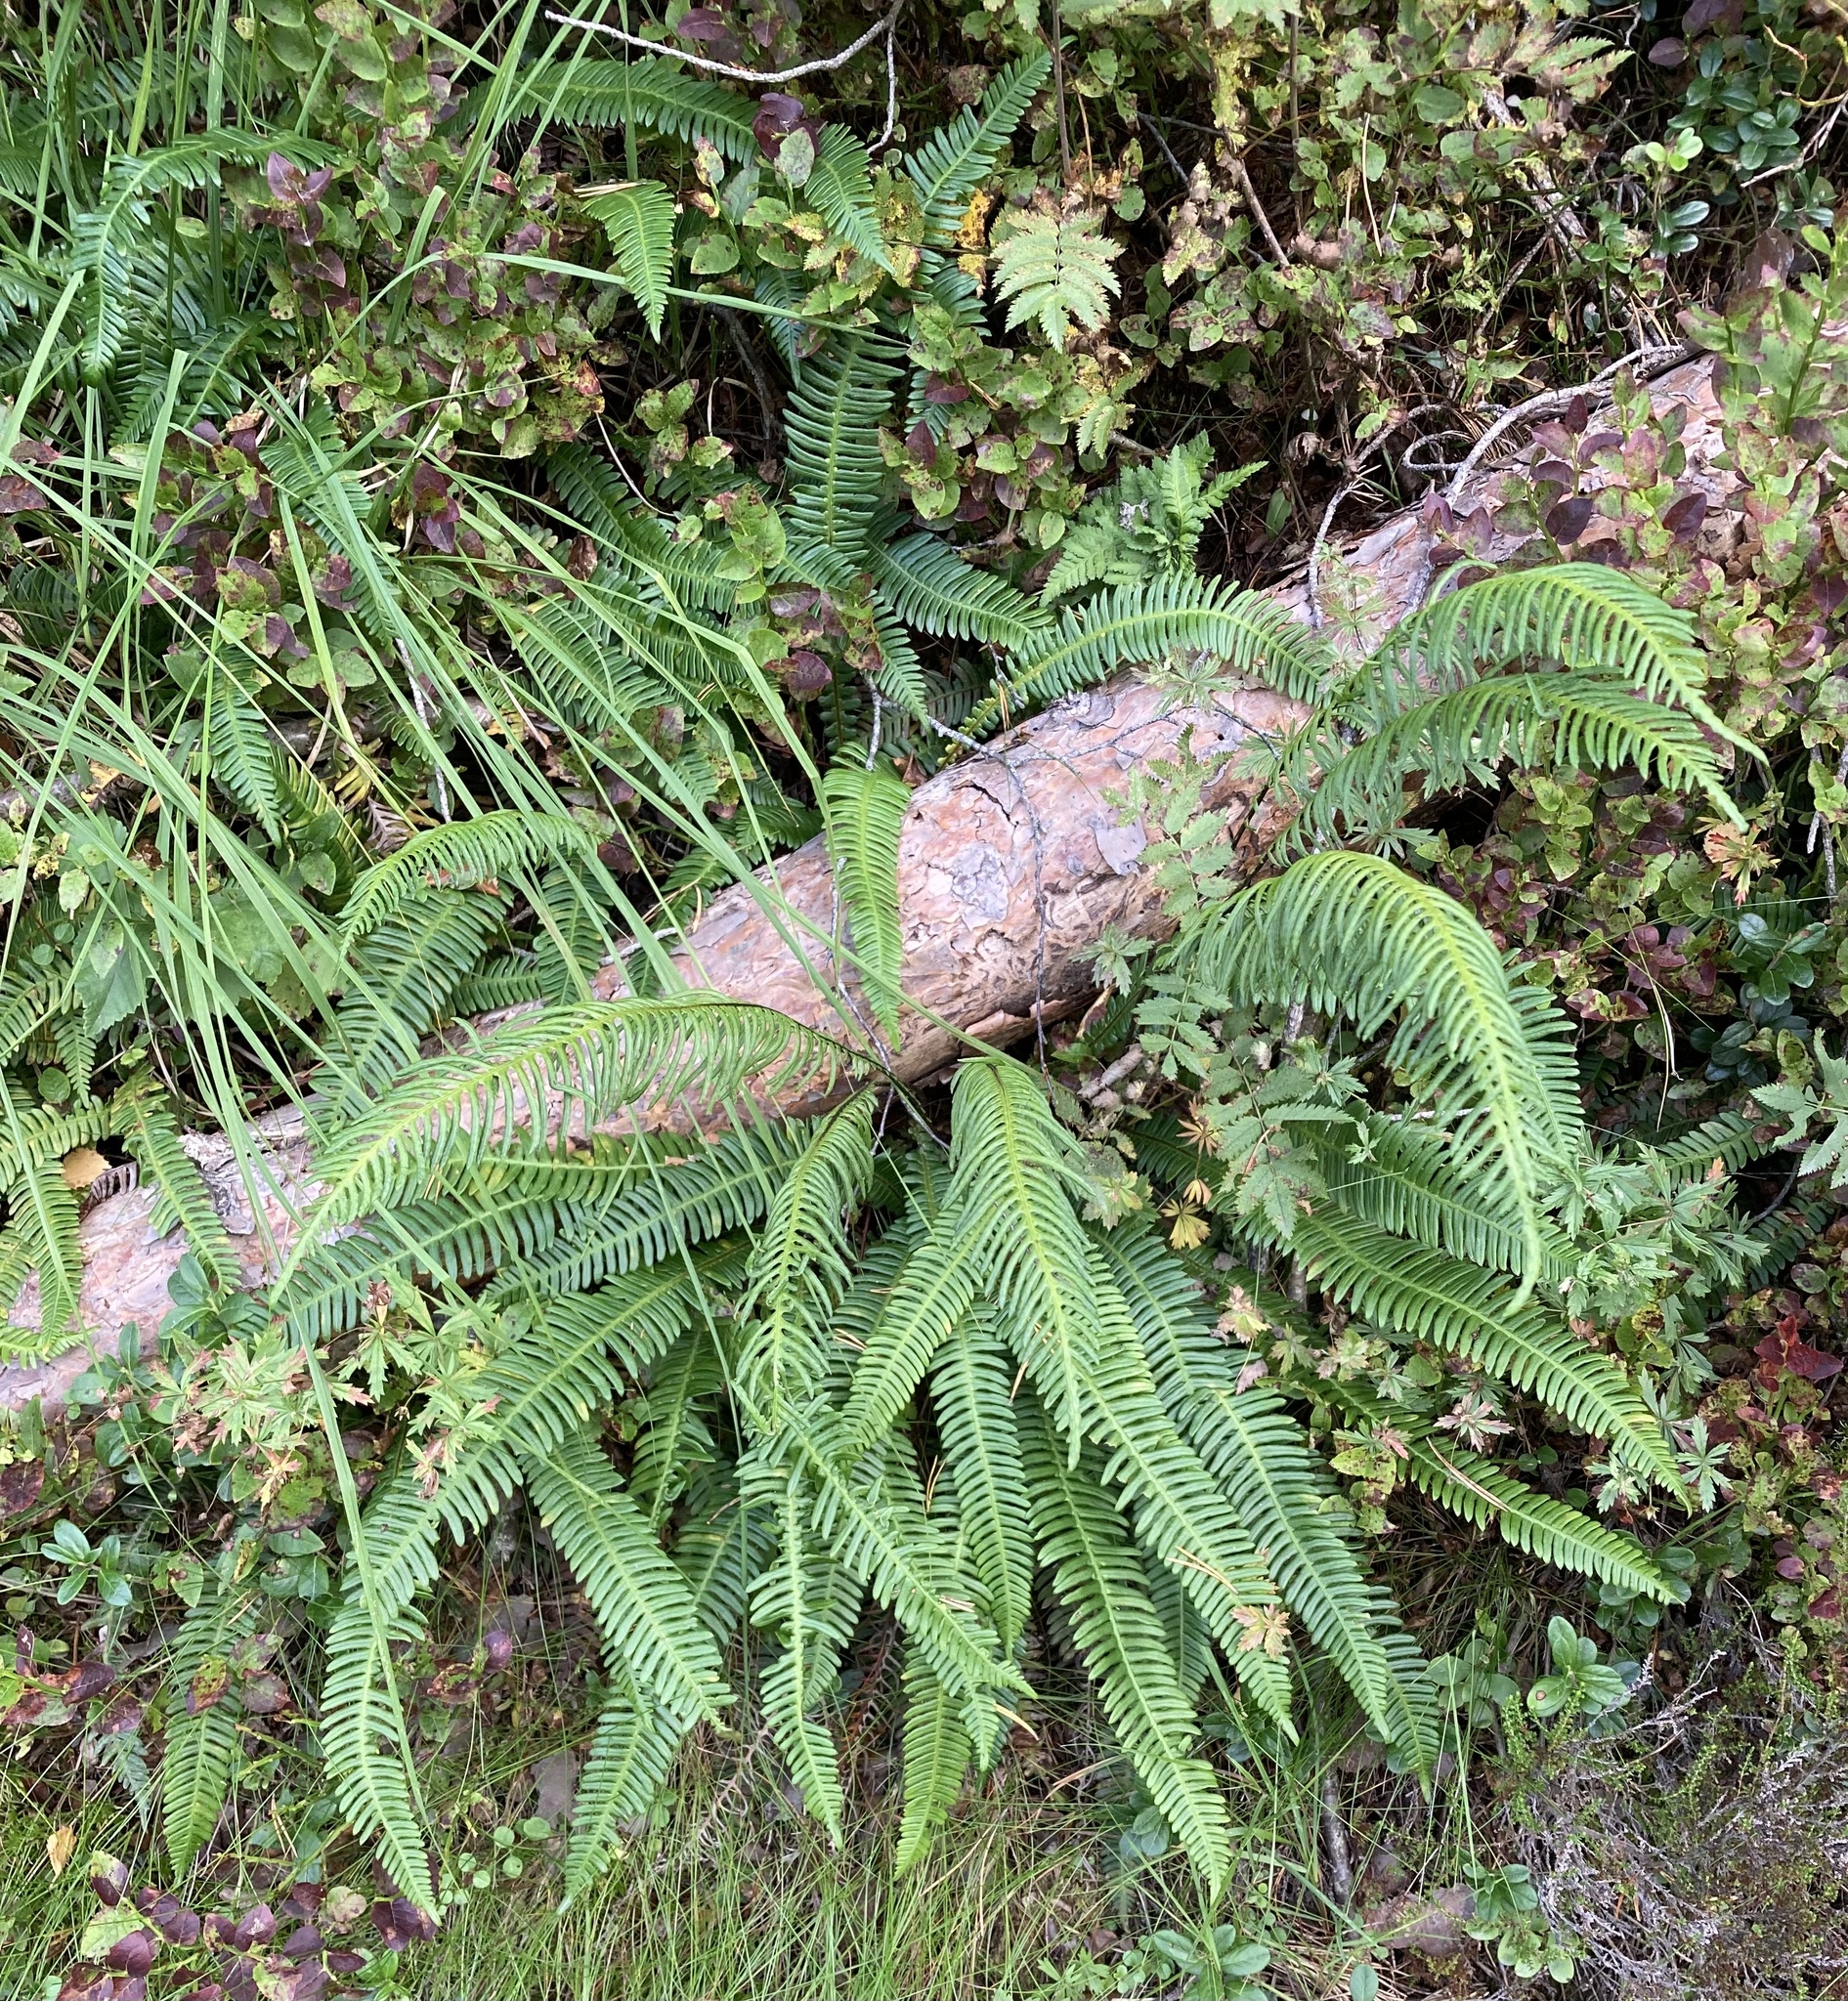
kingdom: Plantae
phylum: Tracheophyta
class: Polypodiopsida
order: Polypodiales
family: Blechnaceae
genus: Struthiopteris
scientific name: Struthiopteris spicant
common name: Deer fern
